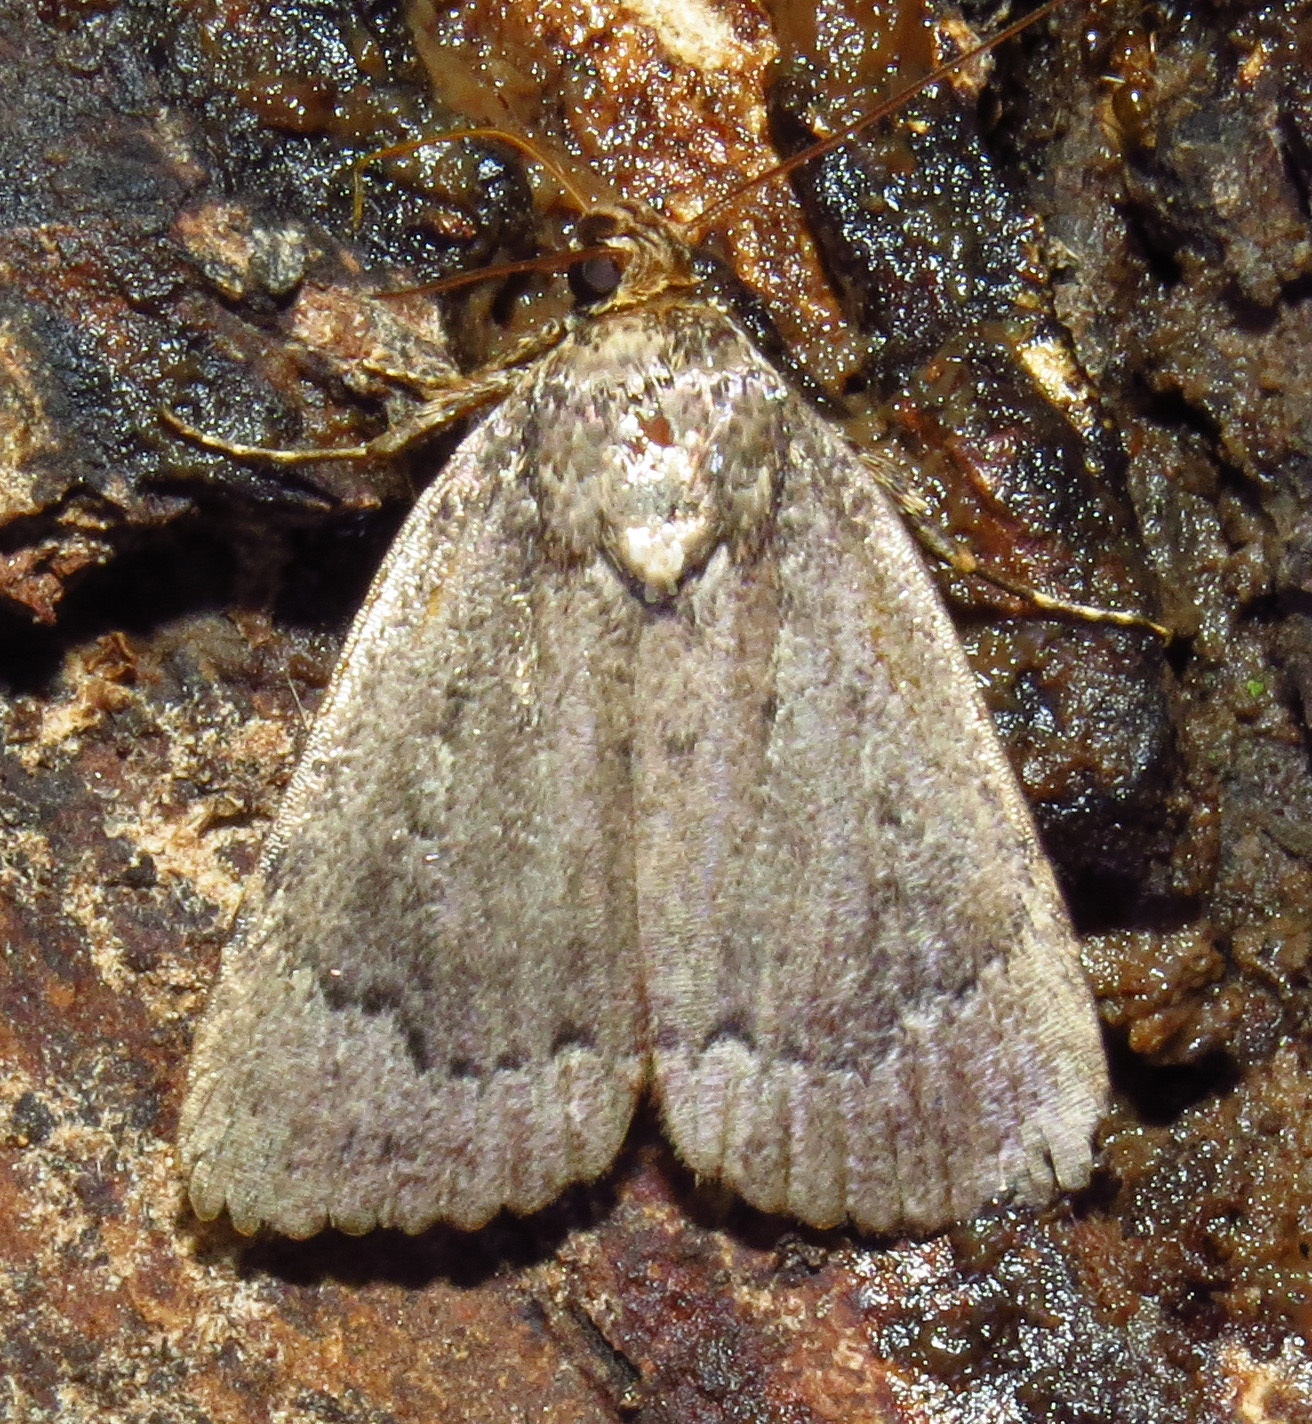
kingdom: Animalia
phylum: Arthropoda
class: Insecta
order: Lepidoptera
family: Noctuidae
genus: Amphipyra
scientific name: Amphipyra pyramidoides
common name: American copper underwing
